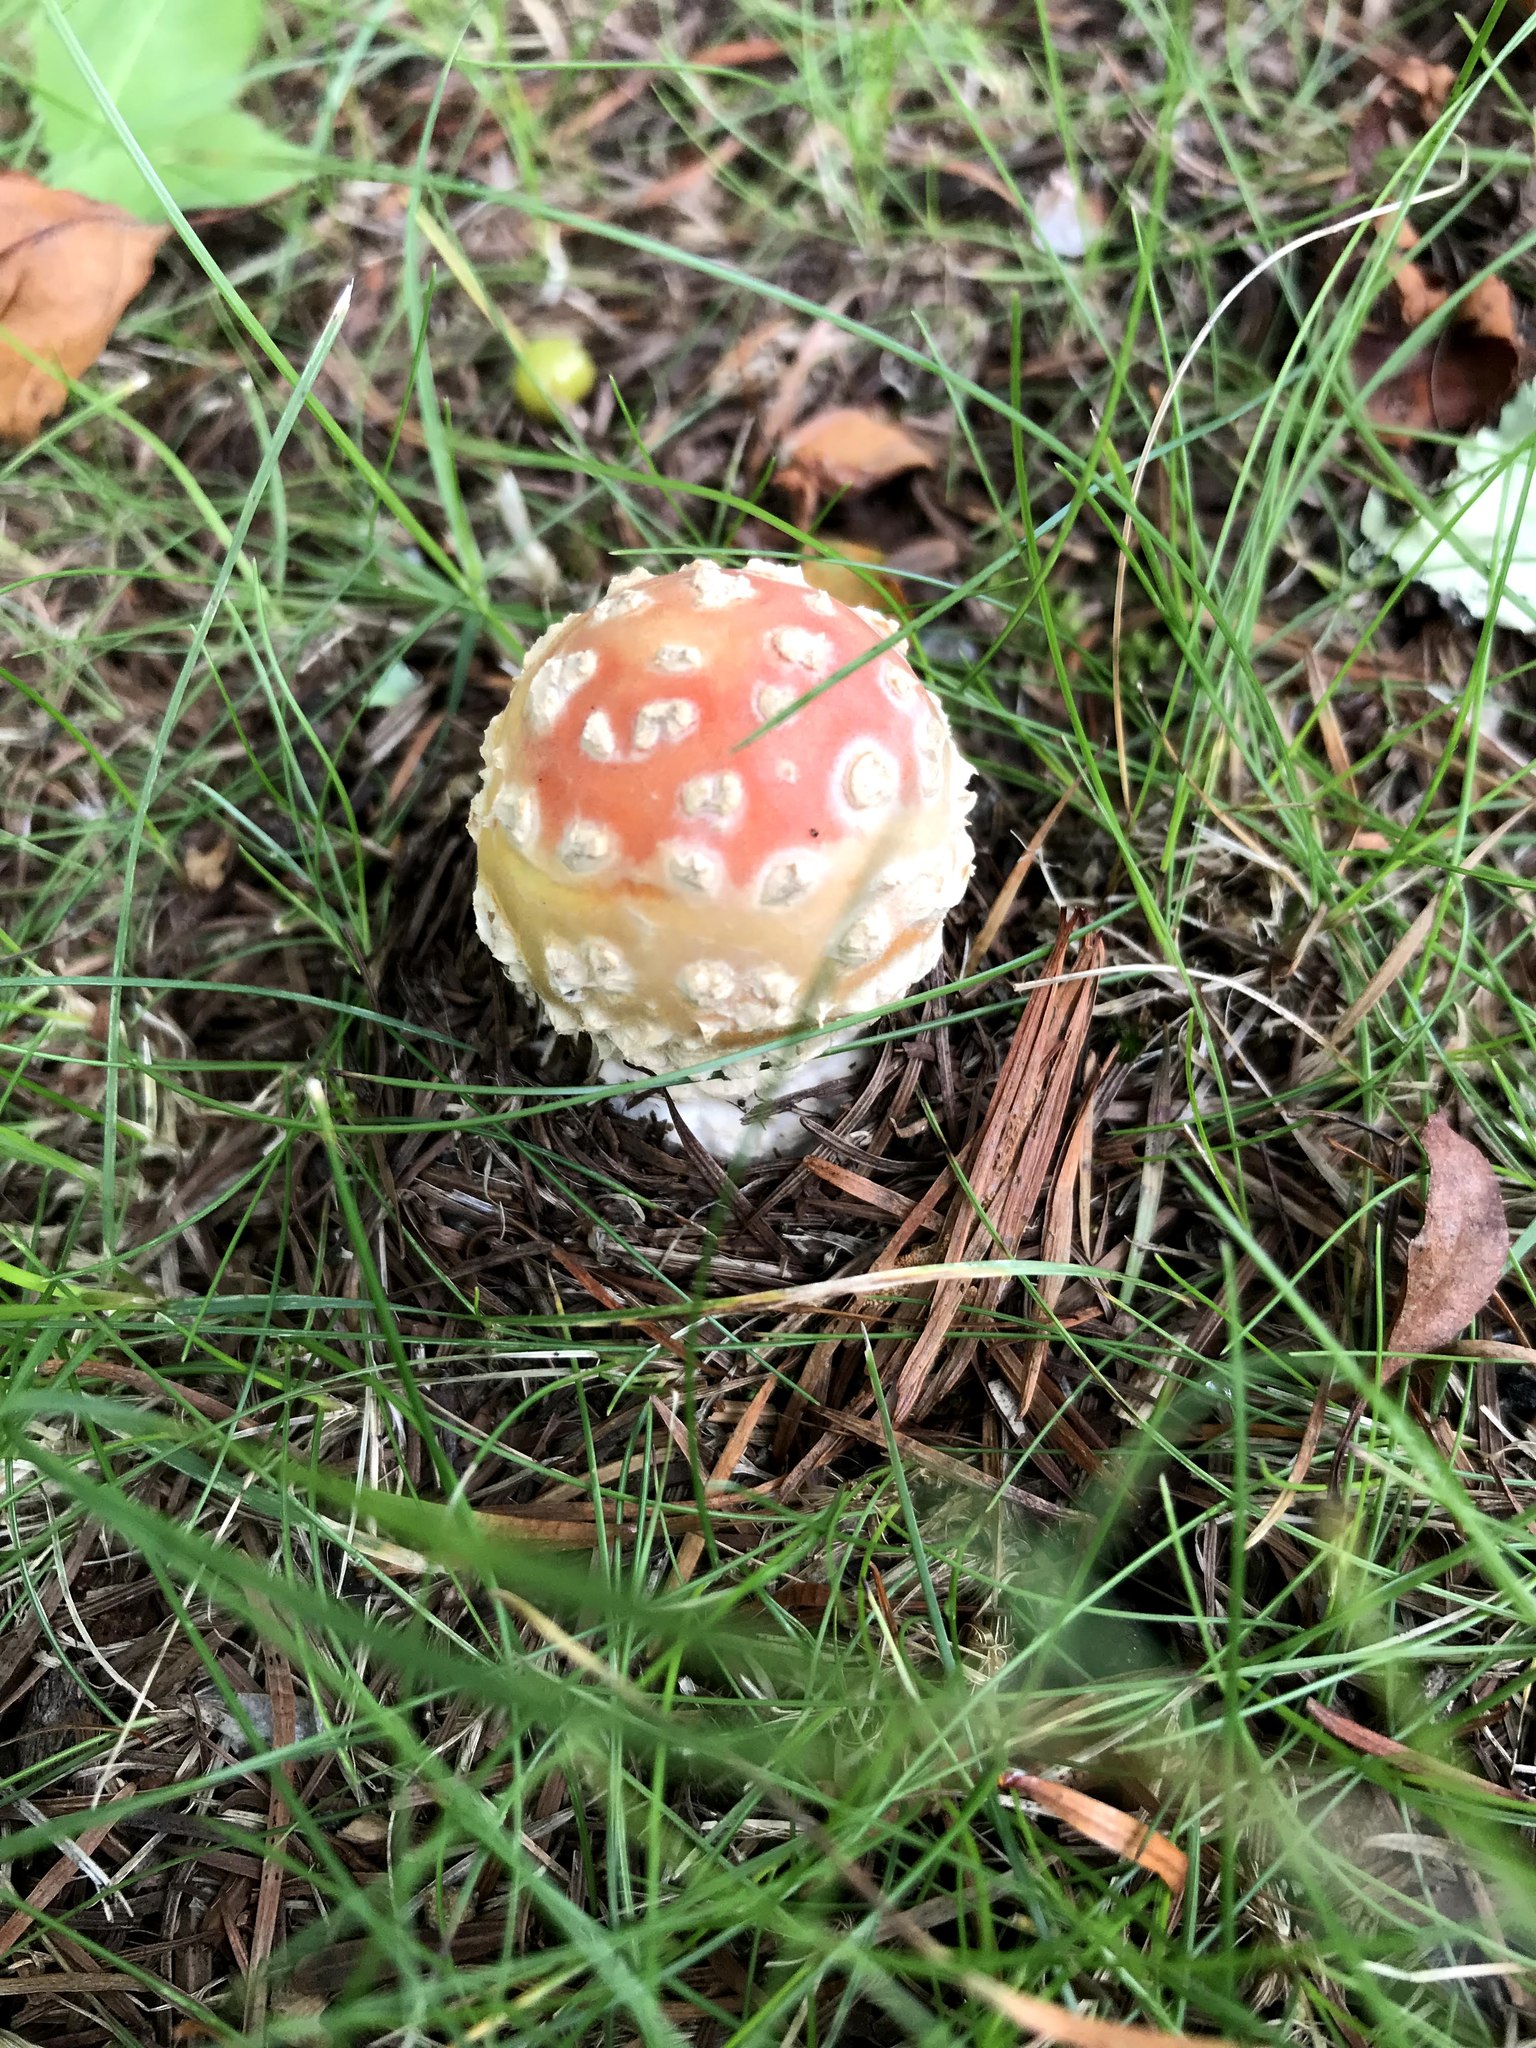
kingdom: Fungi
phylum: Basidiomycota
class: Agaricomycetes
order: Agaricales
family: Amanitaceae
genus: Amanita
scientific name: Amanita muscaria
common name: Fly agaric
